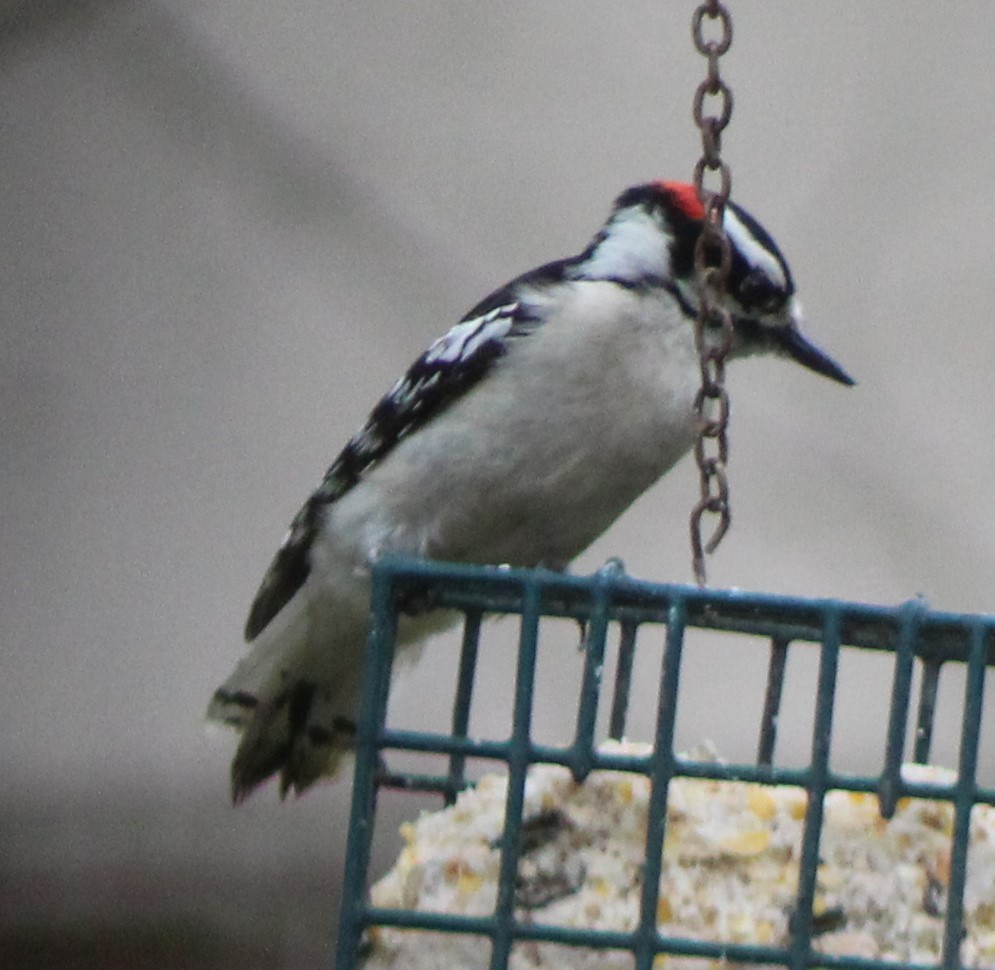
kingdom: Animalia
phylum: Chordata
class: Aves
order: Piciformes
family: Picidae
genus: Dryobates
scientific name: Dryobates pubescens
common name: Downy woodpecker
